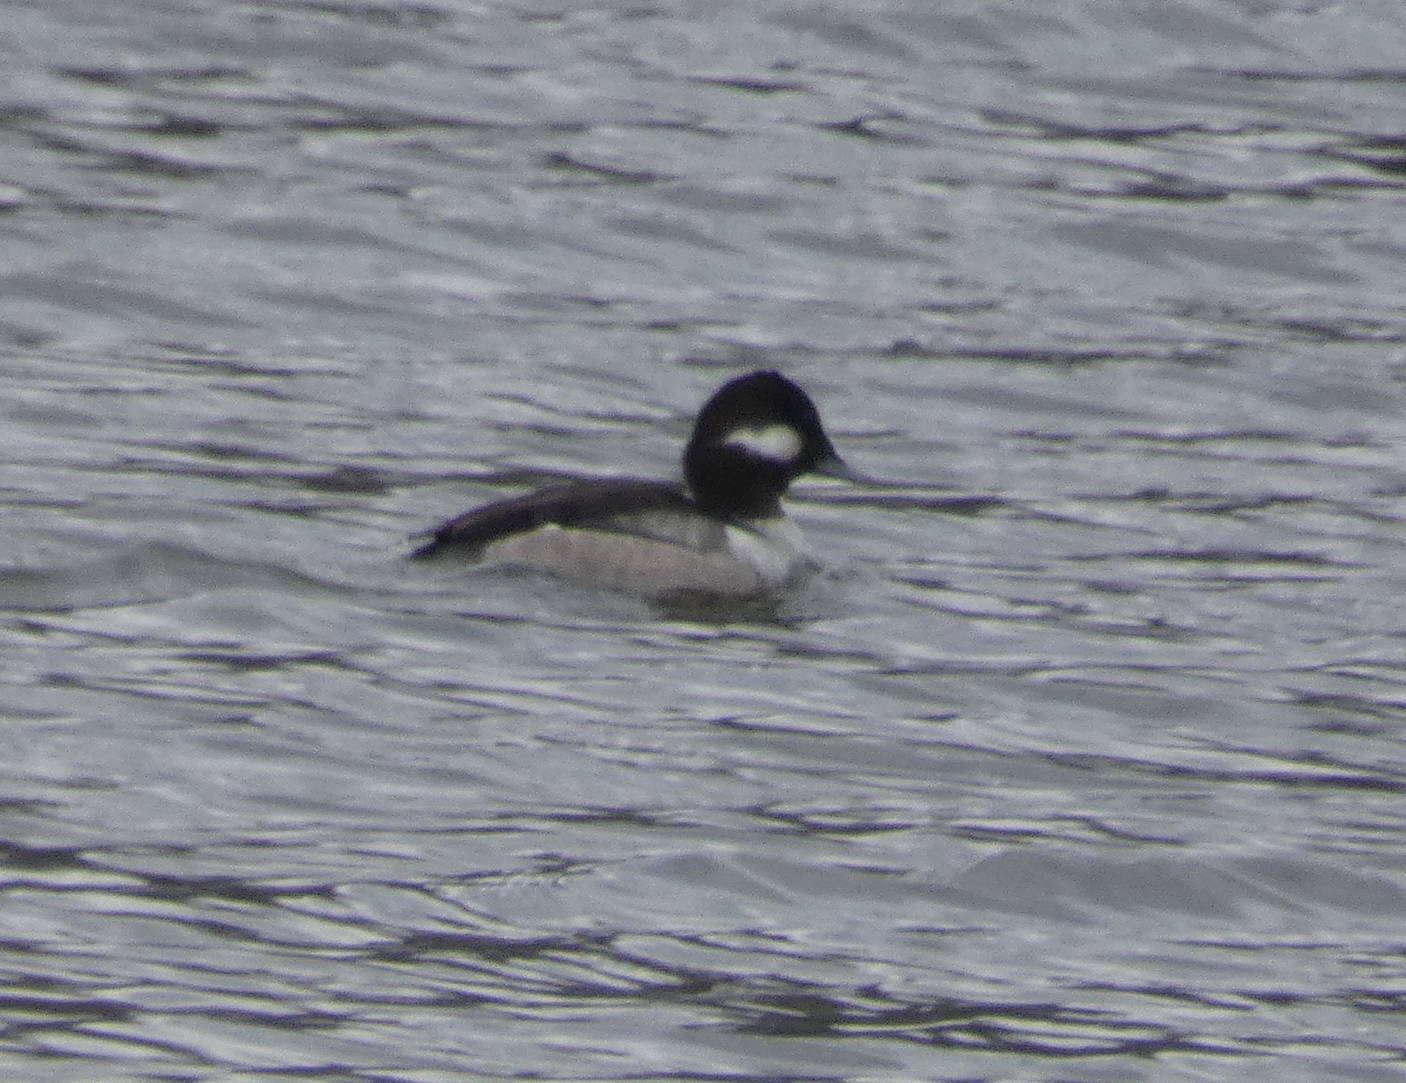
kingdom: Animalia
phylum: Chordata
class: Aves
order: Anseriformes
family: Anatidae
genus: Bucephala
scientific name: Bucephala albeola
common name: Bufflehead
